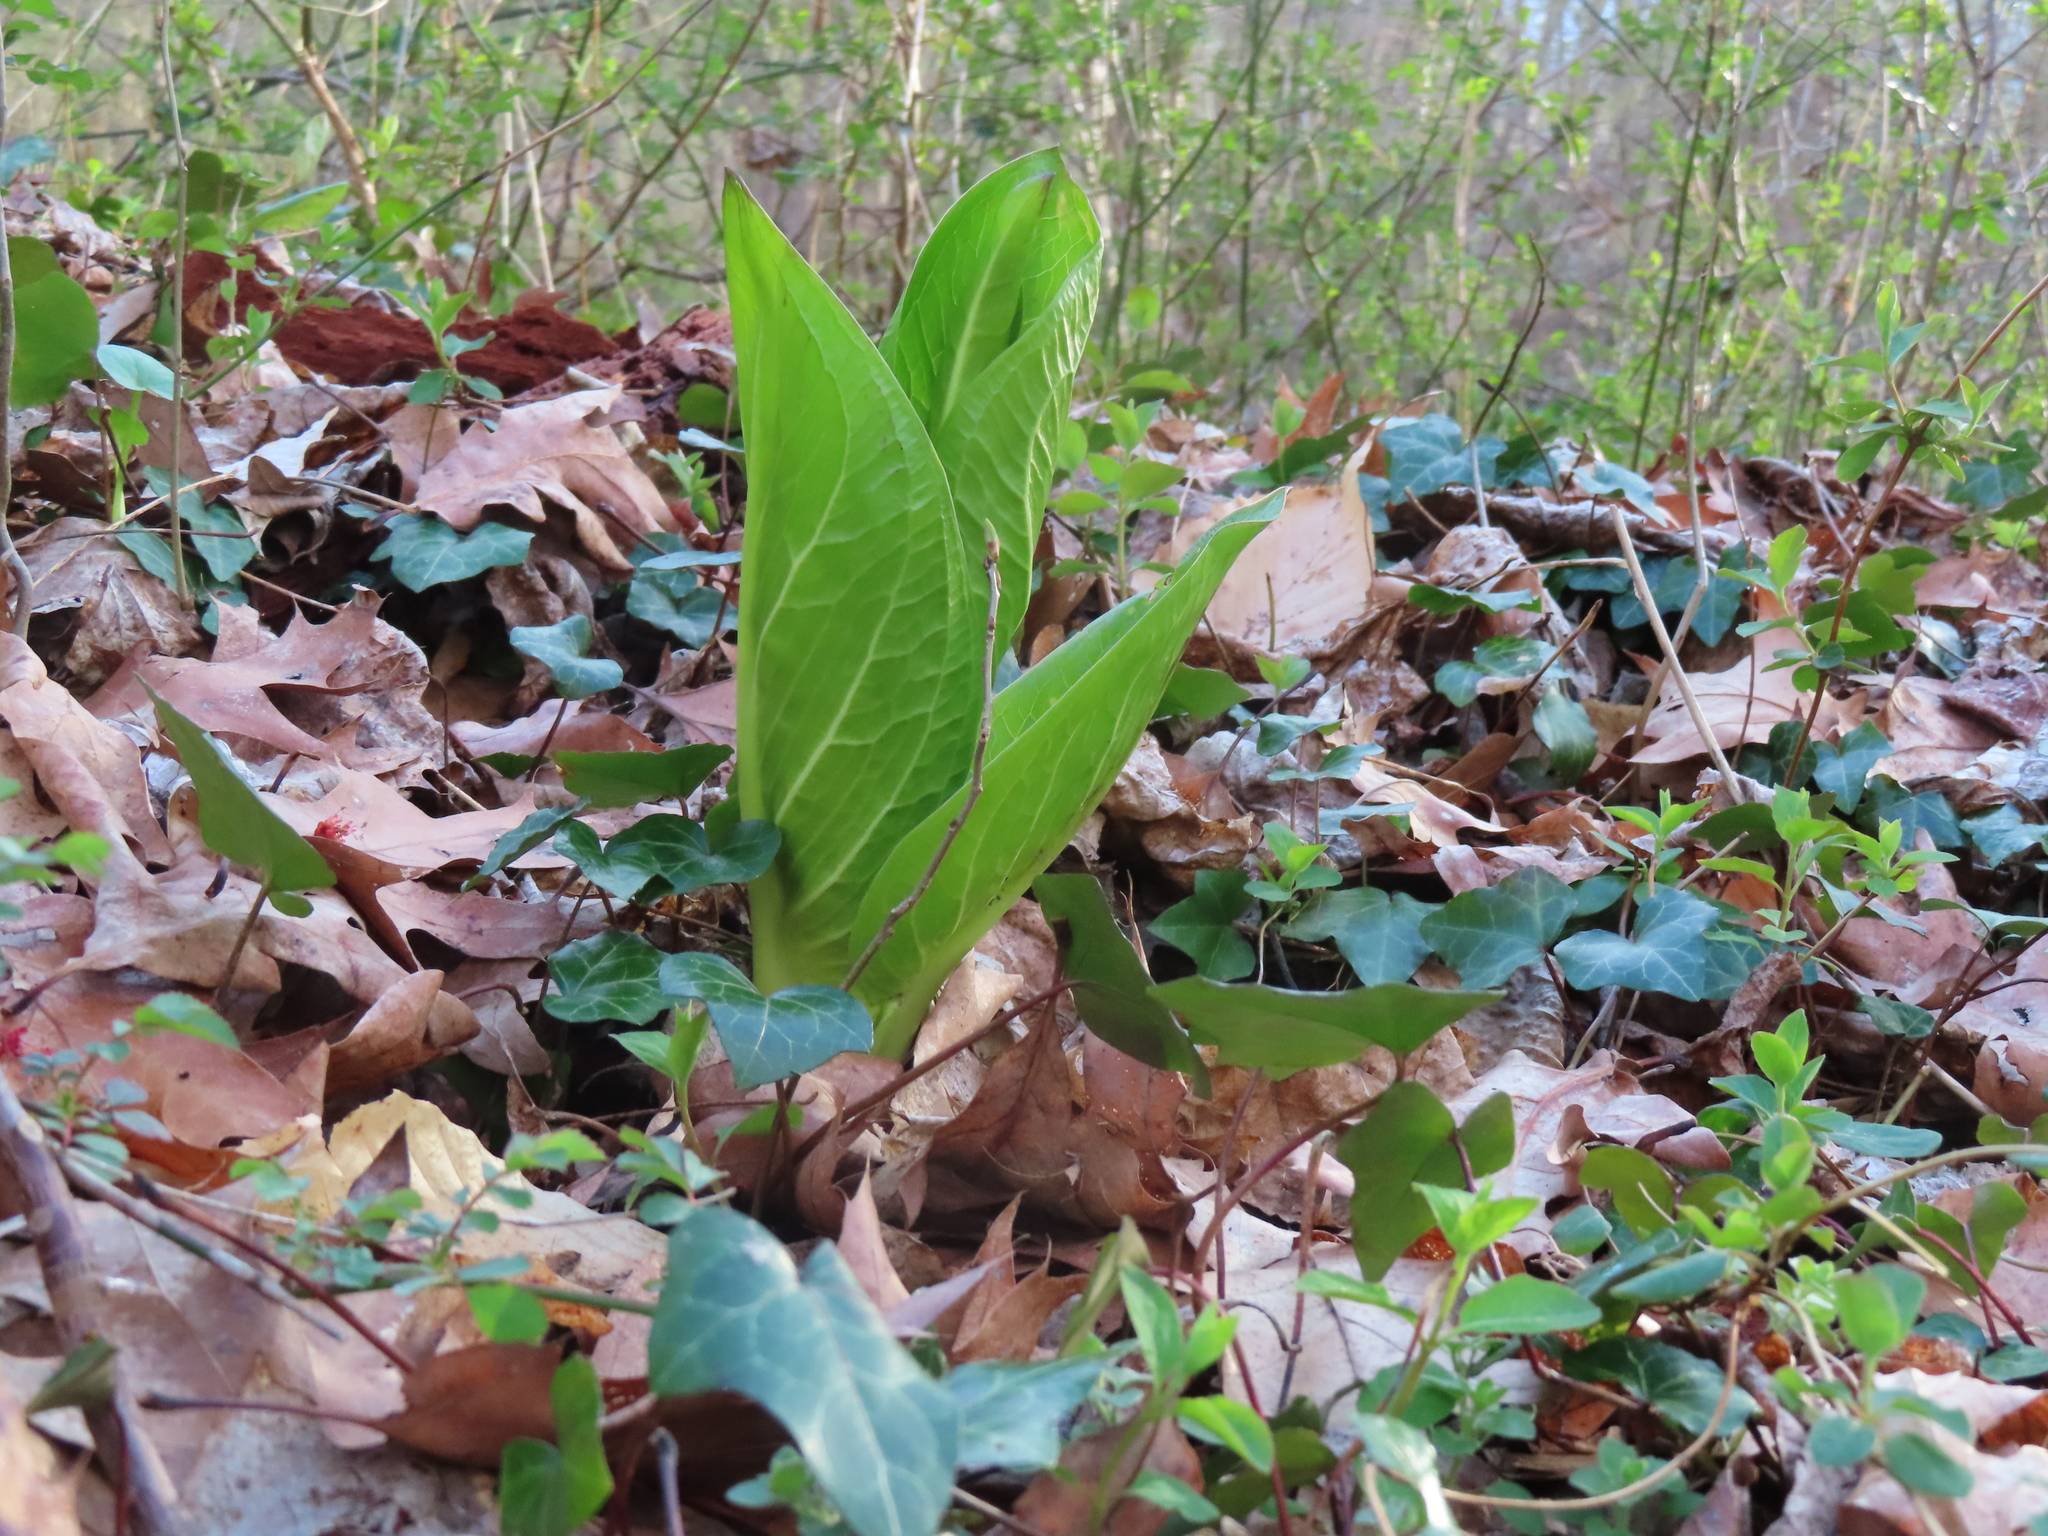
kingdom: Plantae
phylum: Tracheophyta
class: Liliopsida
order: Alismatales
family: Araceae
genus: Symplocarpus
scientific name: Symplocarpus foetidus
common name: Eastern skunk cabbage
